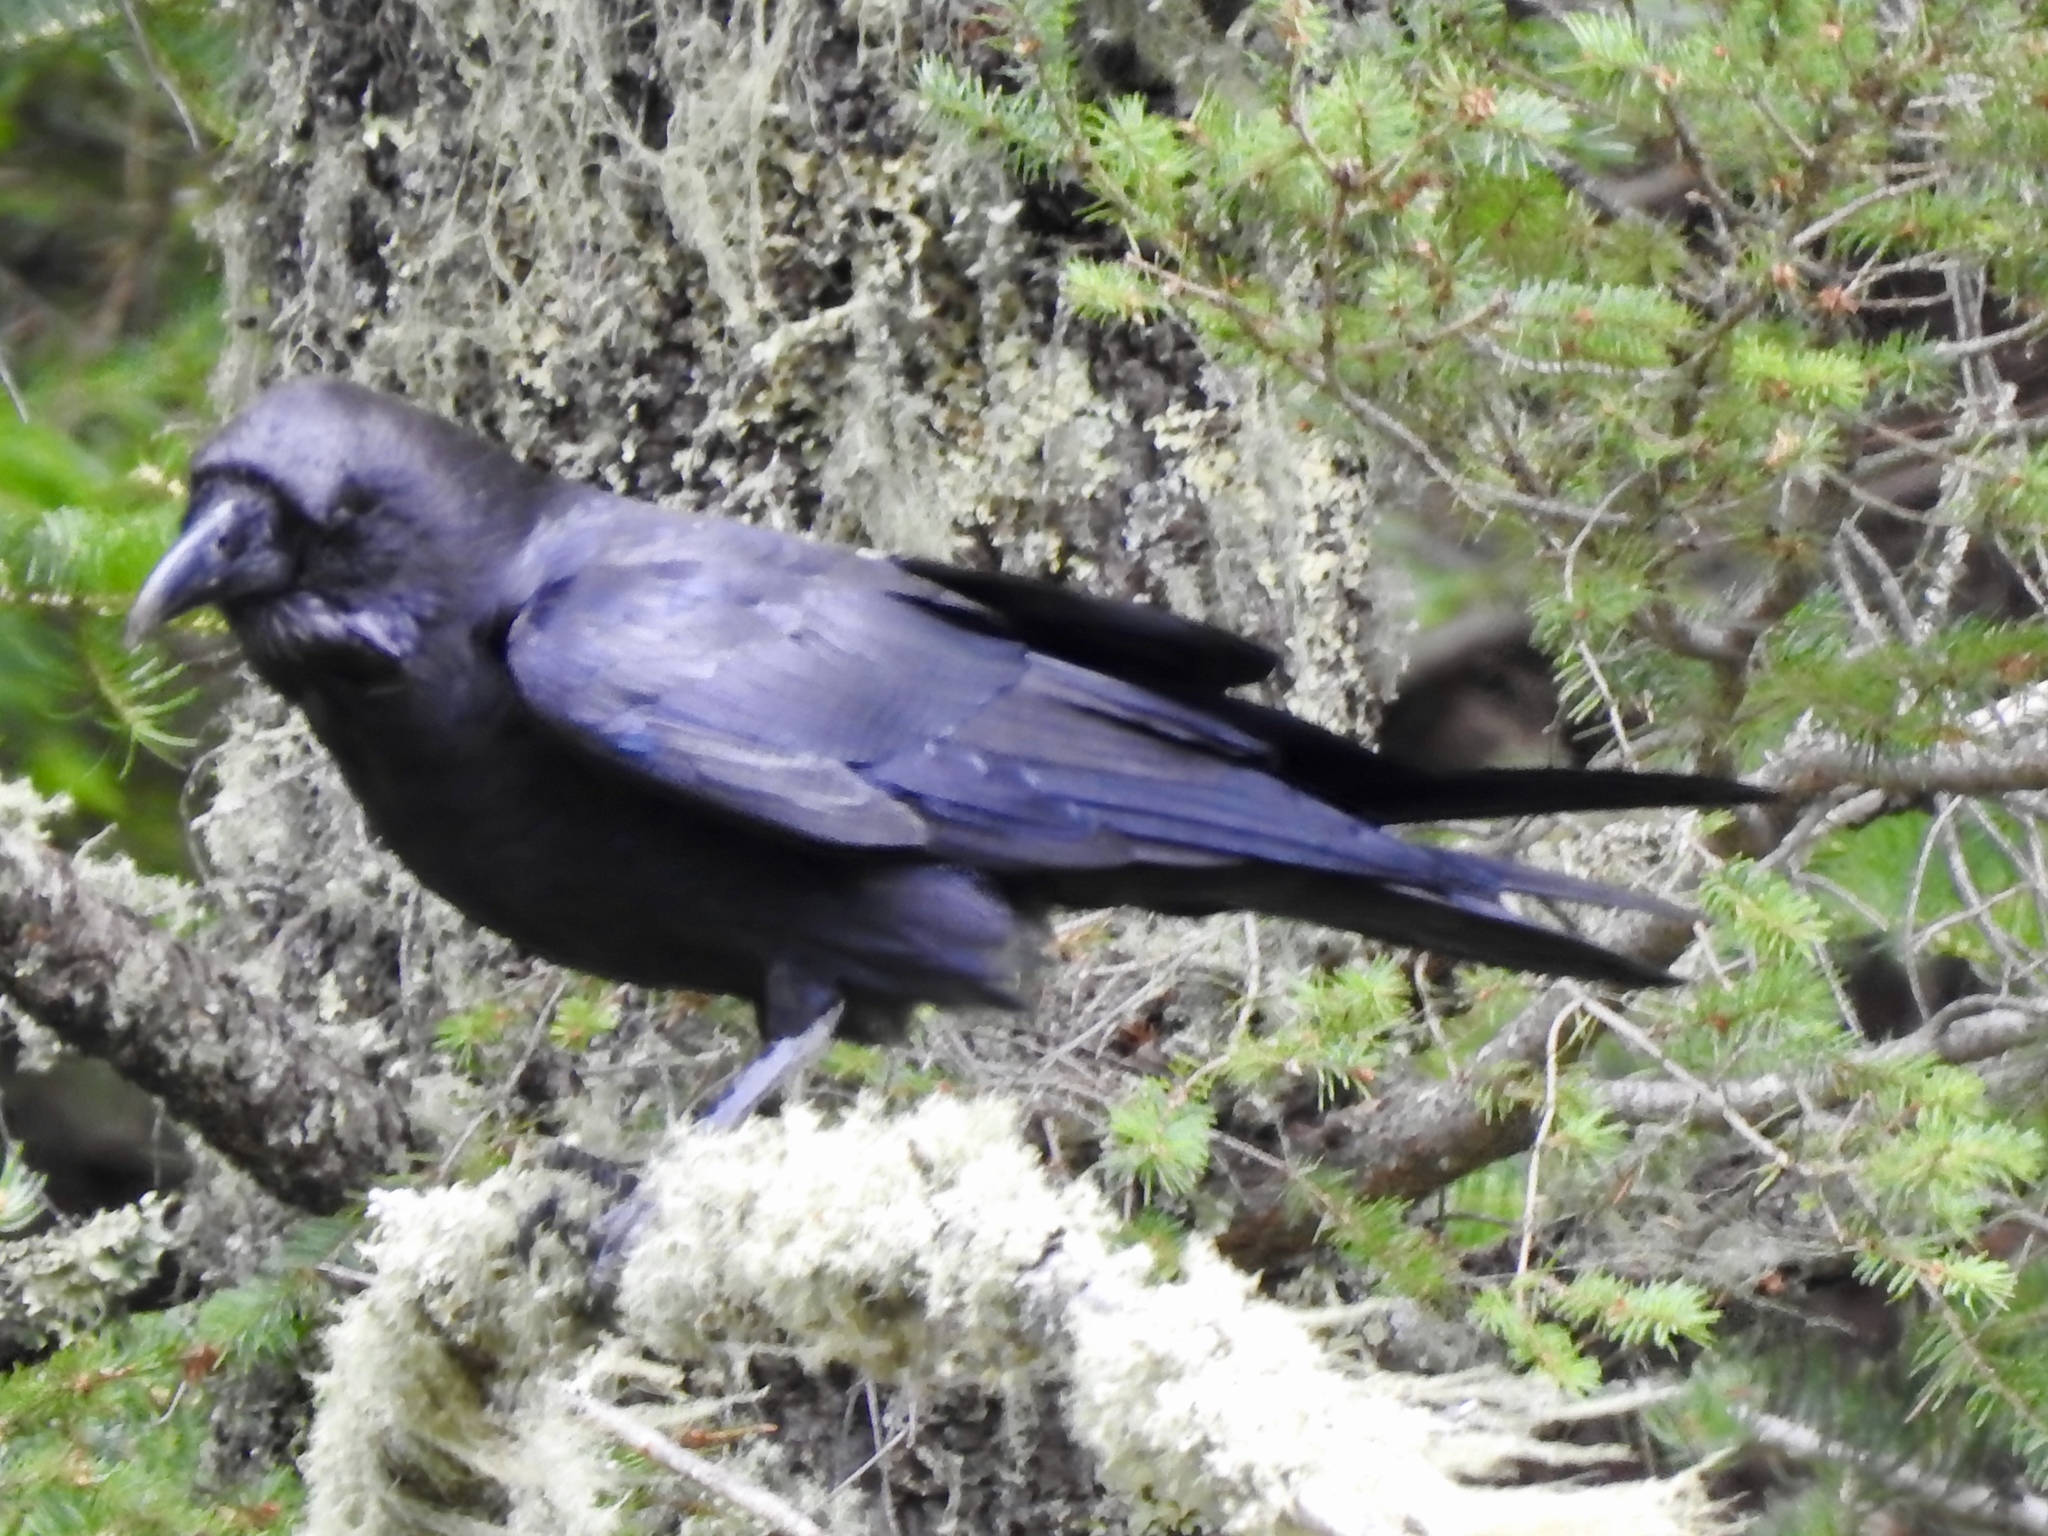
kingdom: Animalia
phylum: Chordata
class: Aves
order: Passeriformes
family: Corvidae
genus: Corvus
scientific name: Corvus corax
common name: Common raven
